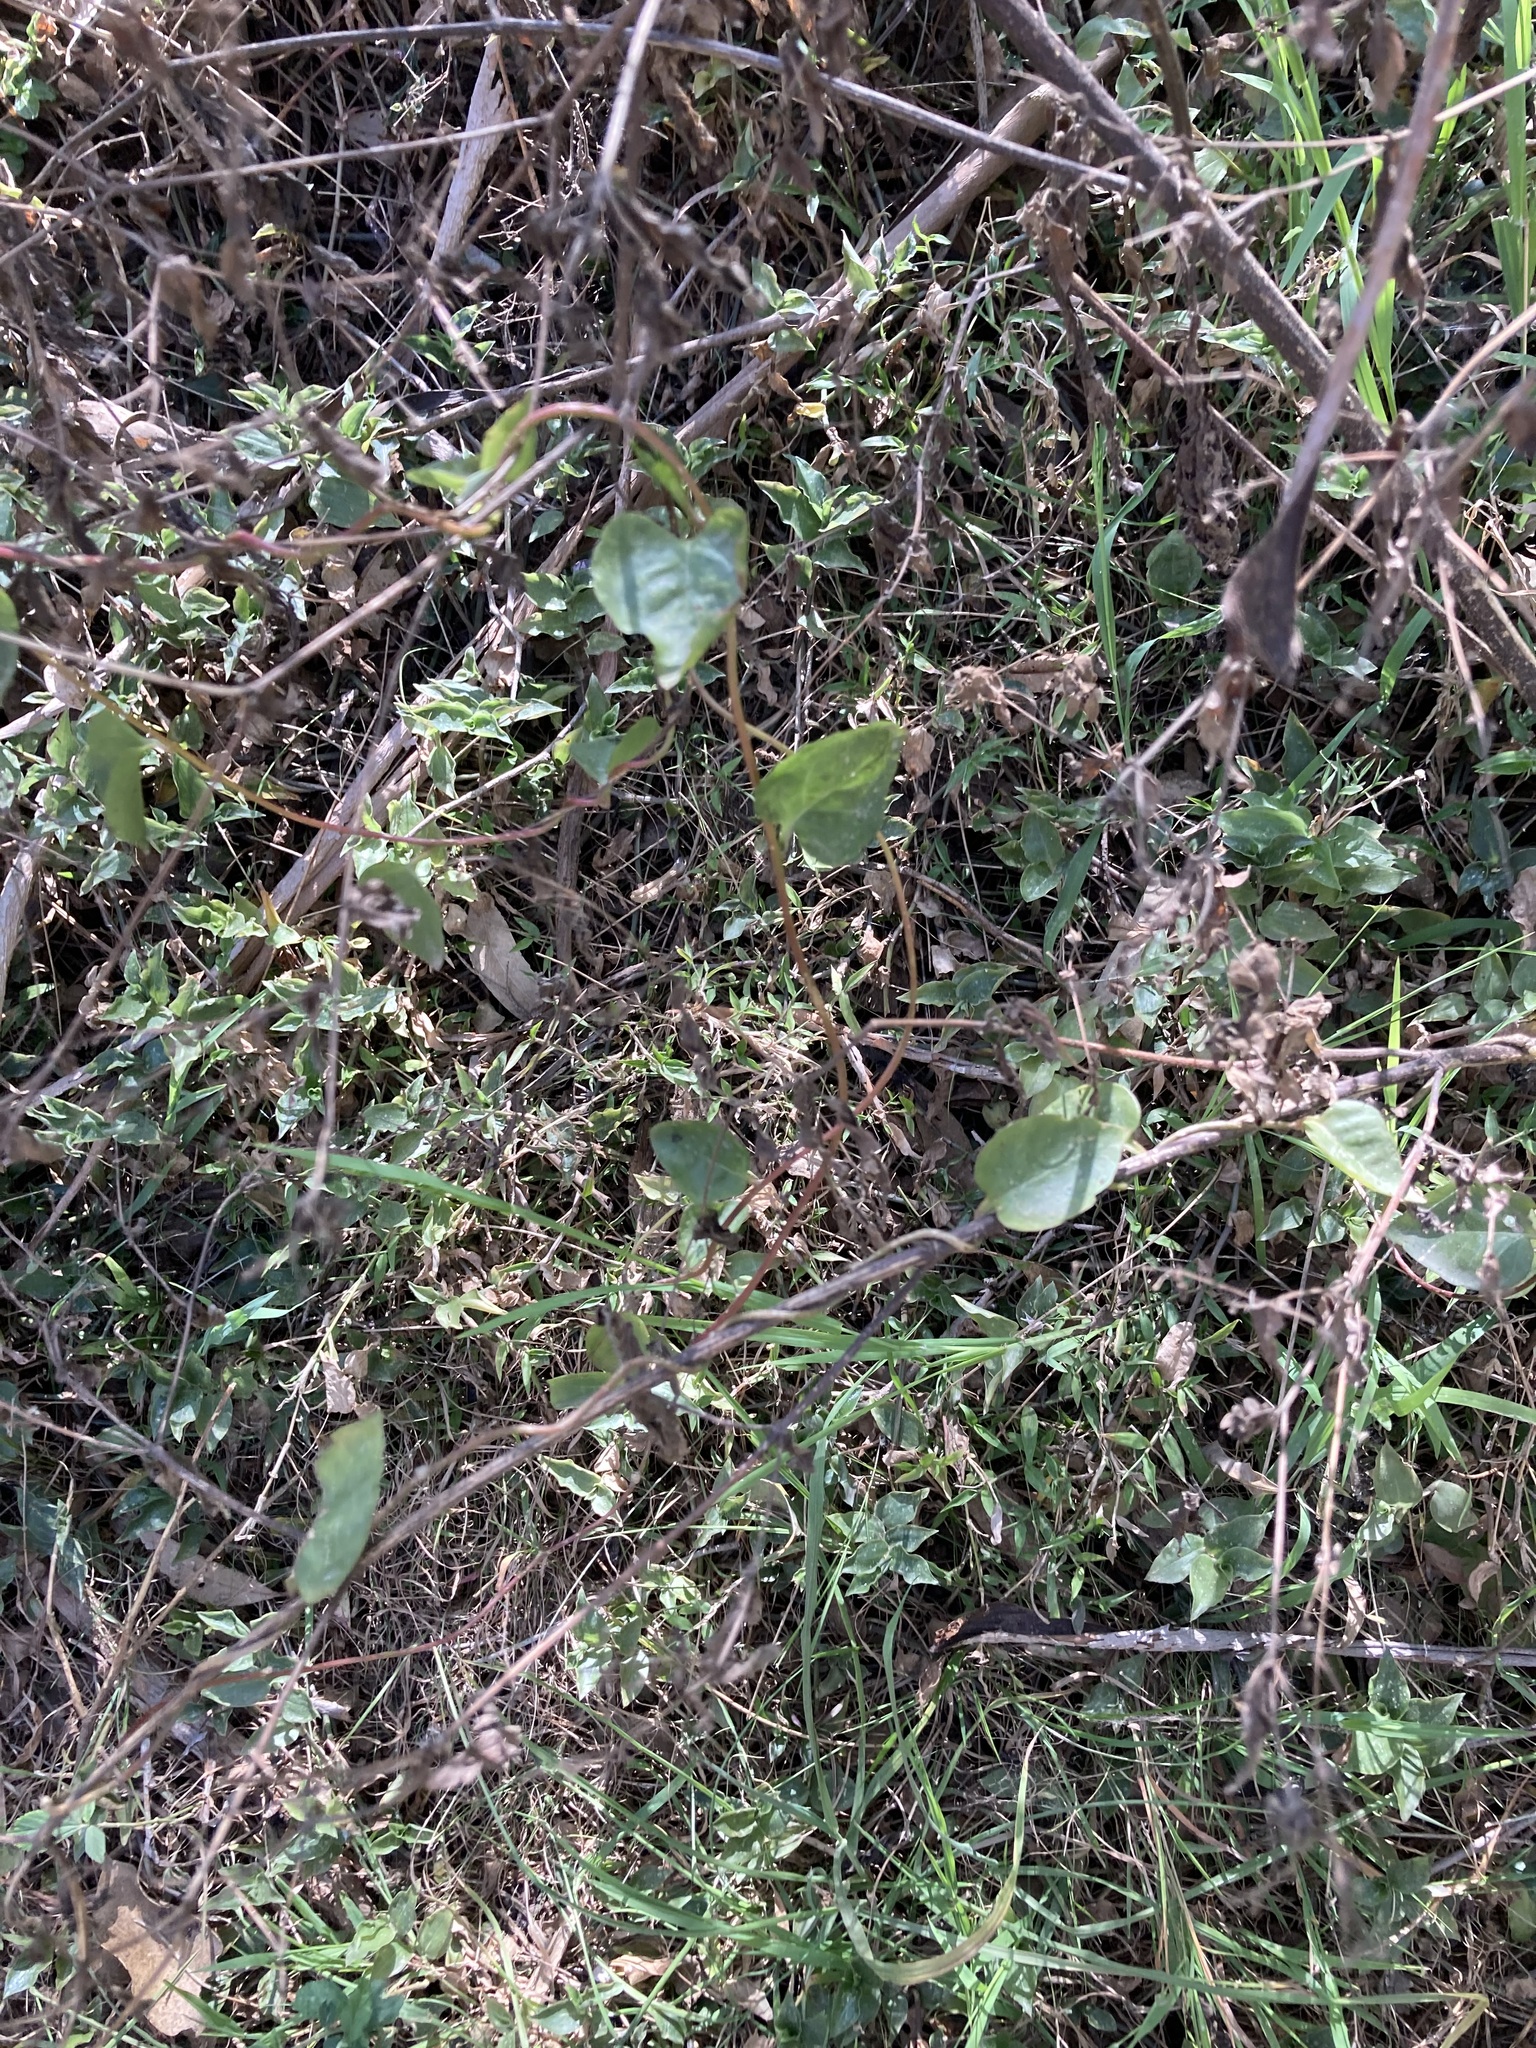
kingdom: Plantae
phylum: Tracheophyta
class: Magnoliopsida
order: Caryophyllales
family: Basellaceae
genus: Anredera
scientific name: Anredera cordifolia
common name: Heartleaf madeiravine
